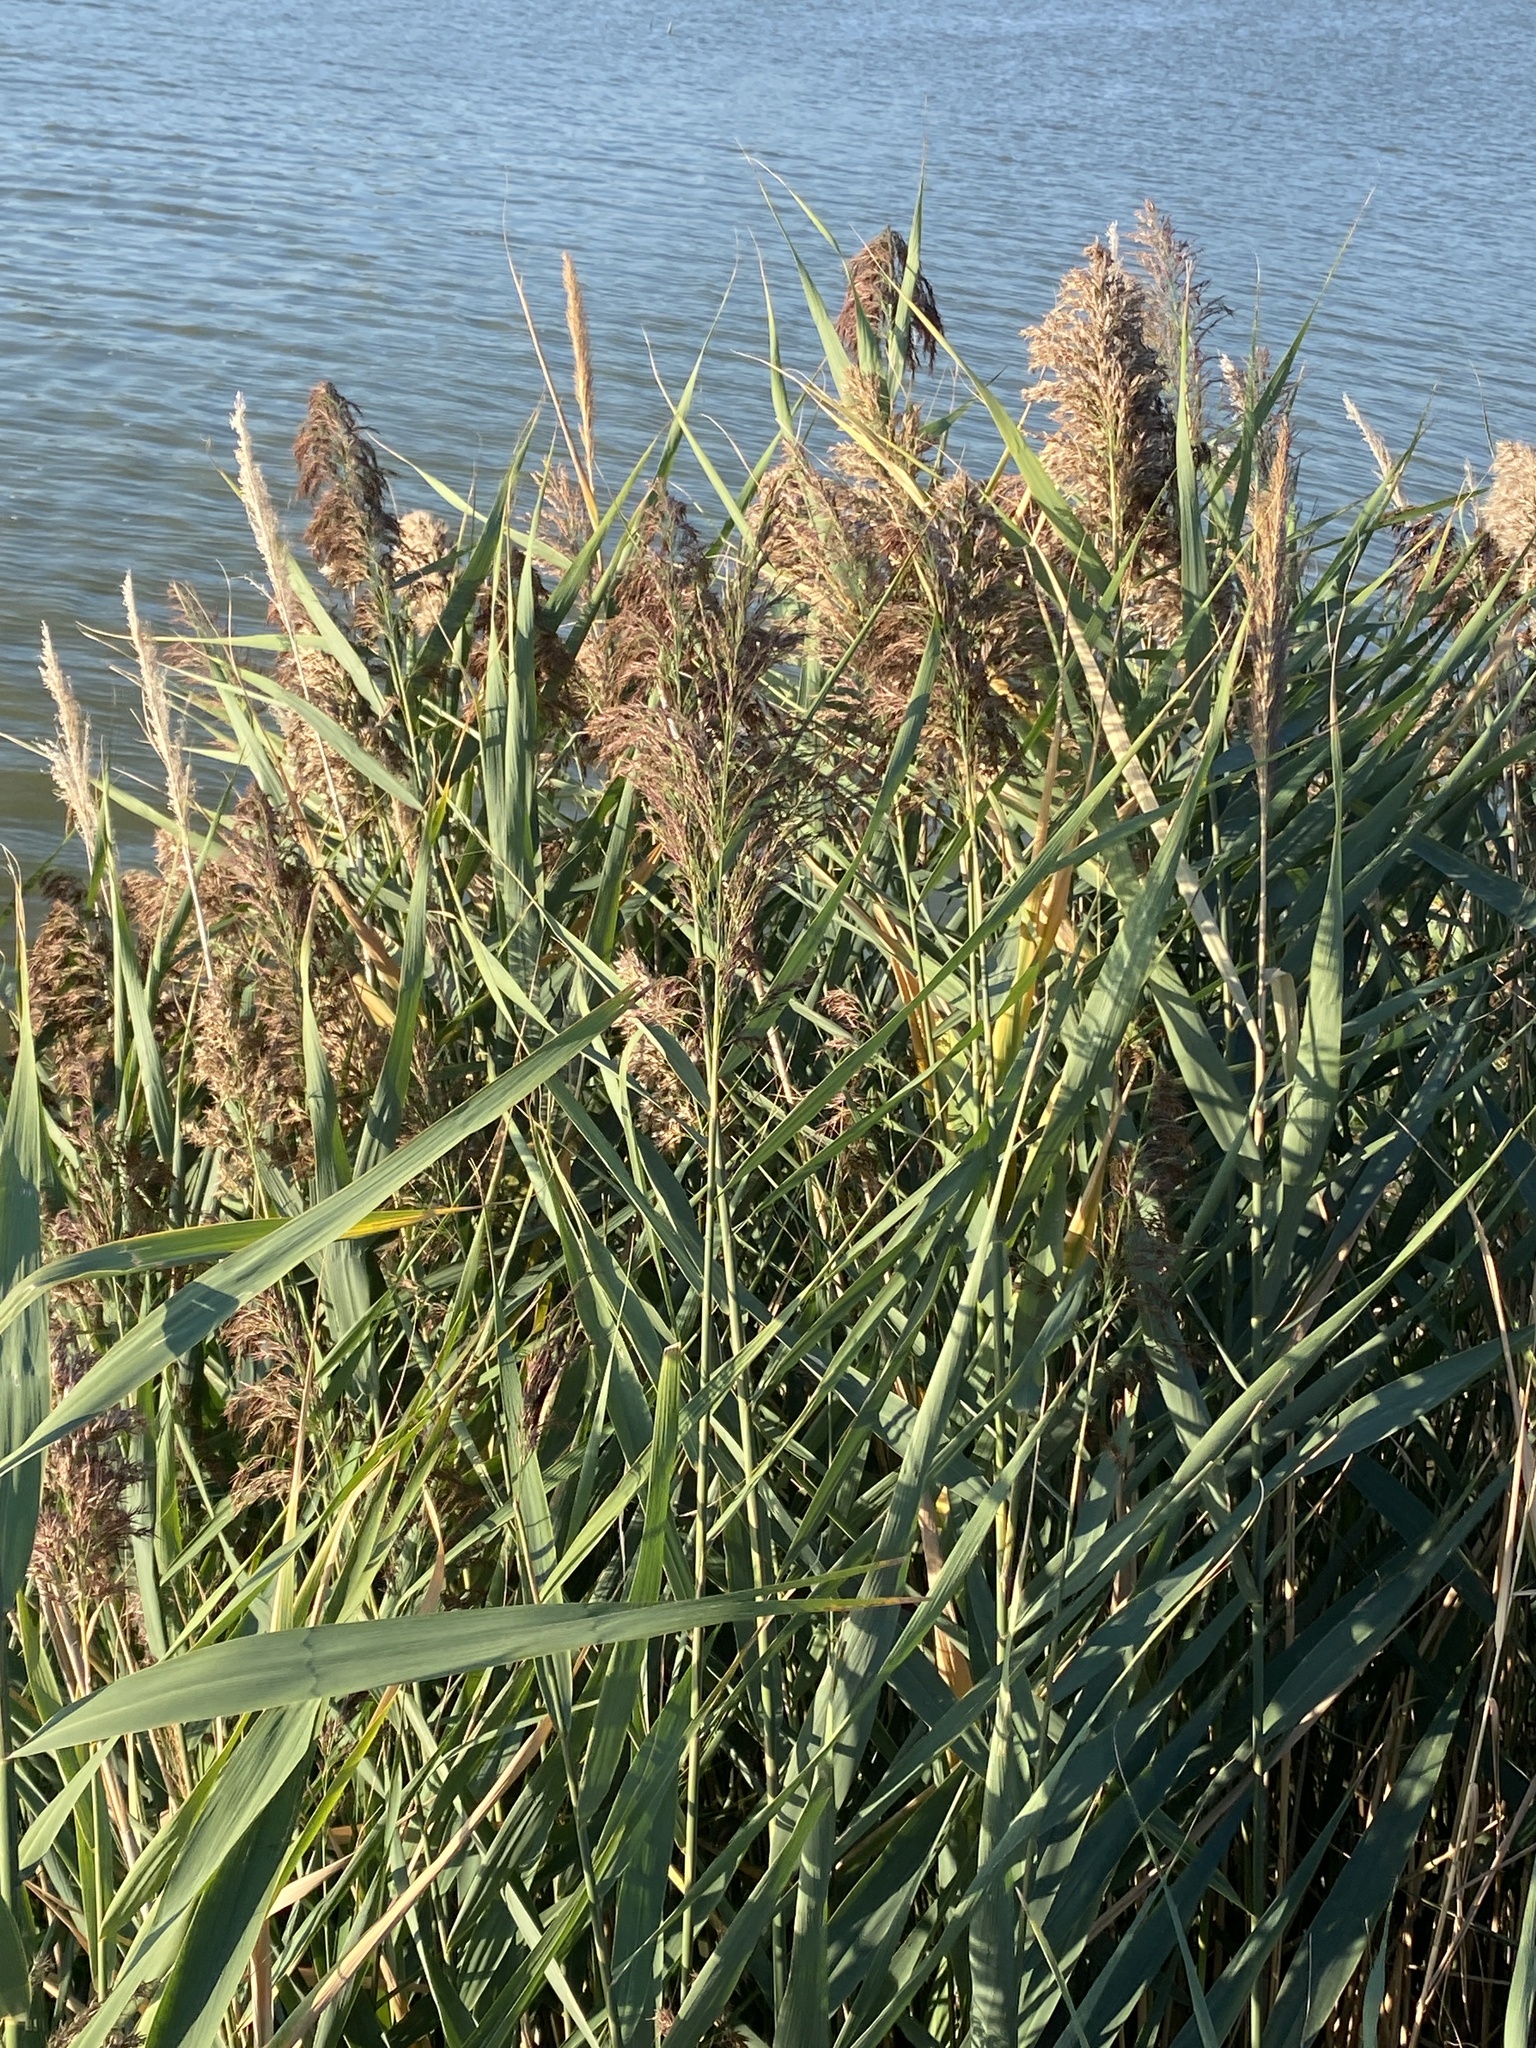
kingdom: Plantae
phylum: Tracheophyta
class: Liliopsida
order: Poales
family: Poaceae
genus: Phragmites
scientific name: Phragmites australis
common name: Common reed
